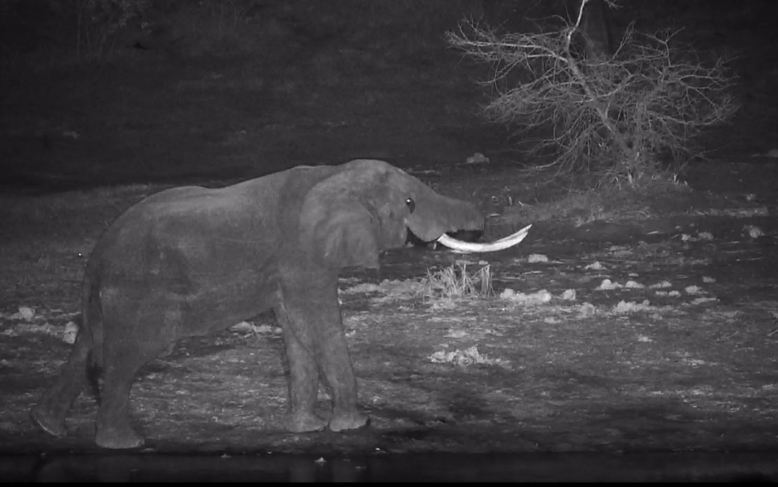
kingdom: Animalia
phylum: Chordata
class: Mammalia
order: Proboscidea
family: Elephantidae
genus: Loxodonta
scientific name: Loxodonta africana
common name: African elephant
